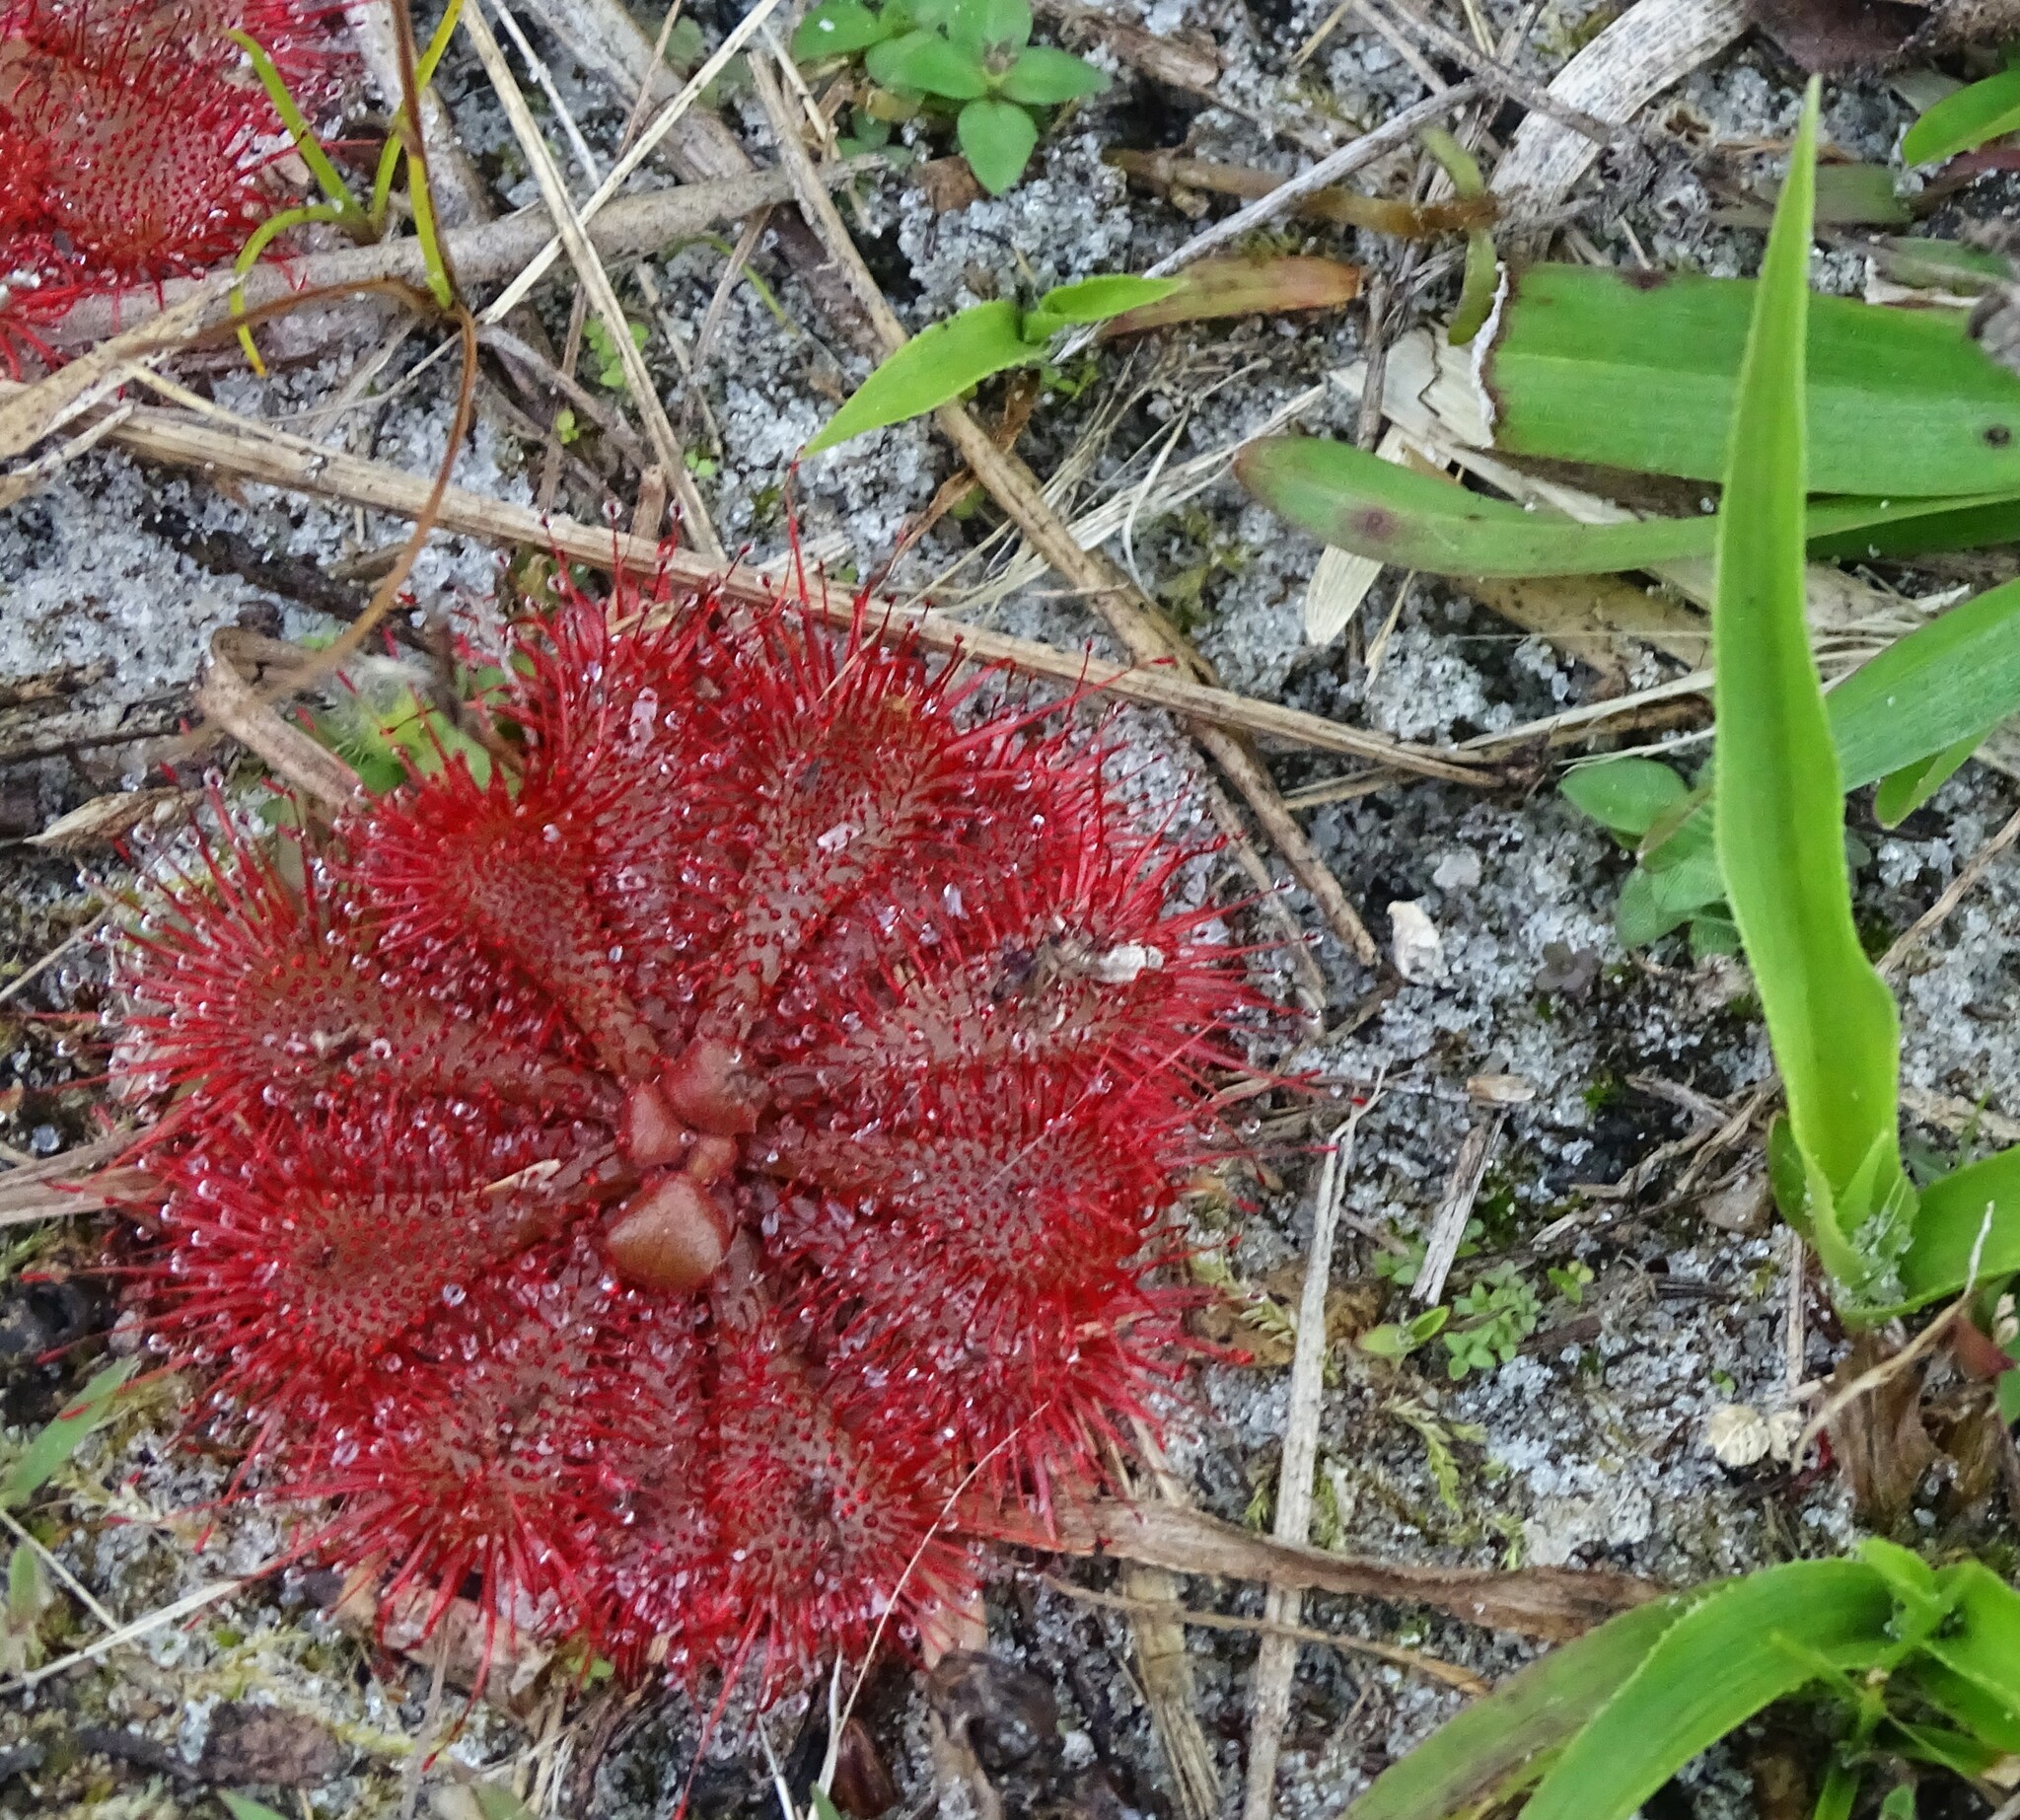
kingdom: Plantae
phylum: Tracheophyta
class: Magnoliopsida
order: Caryophyllales
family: Droseraceae
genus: Drosera
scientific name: Drosera brevifolia
